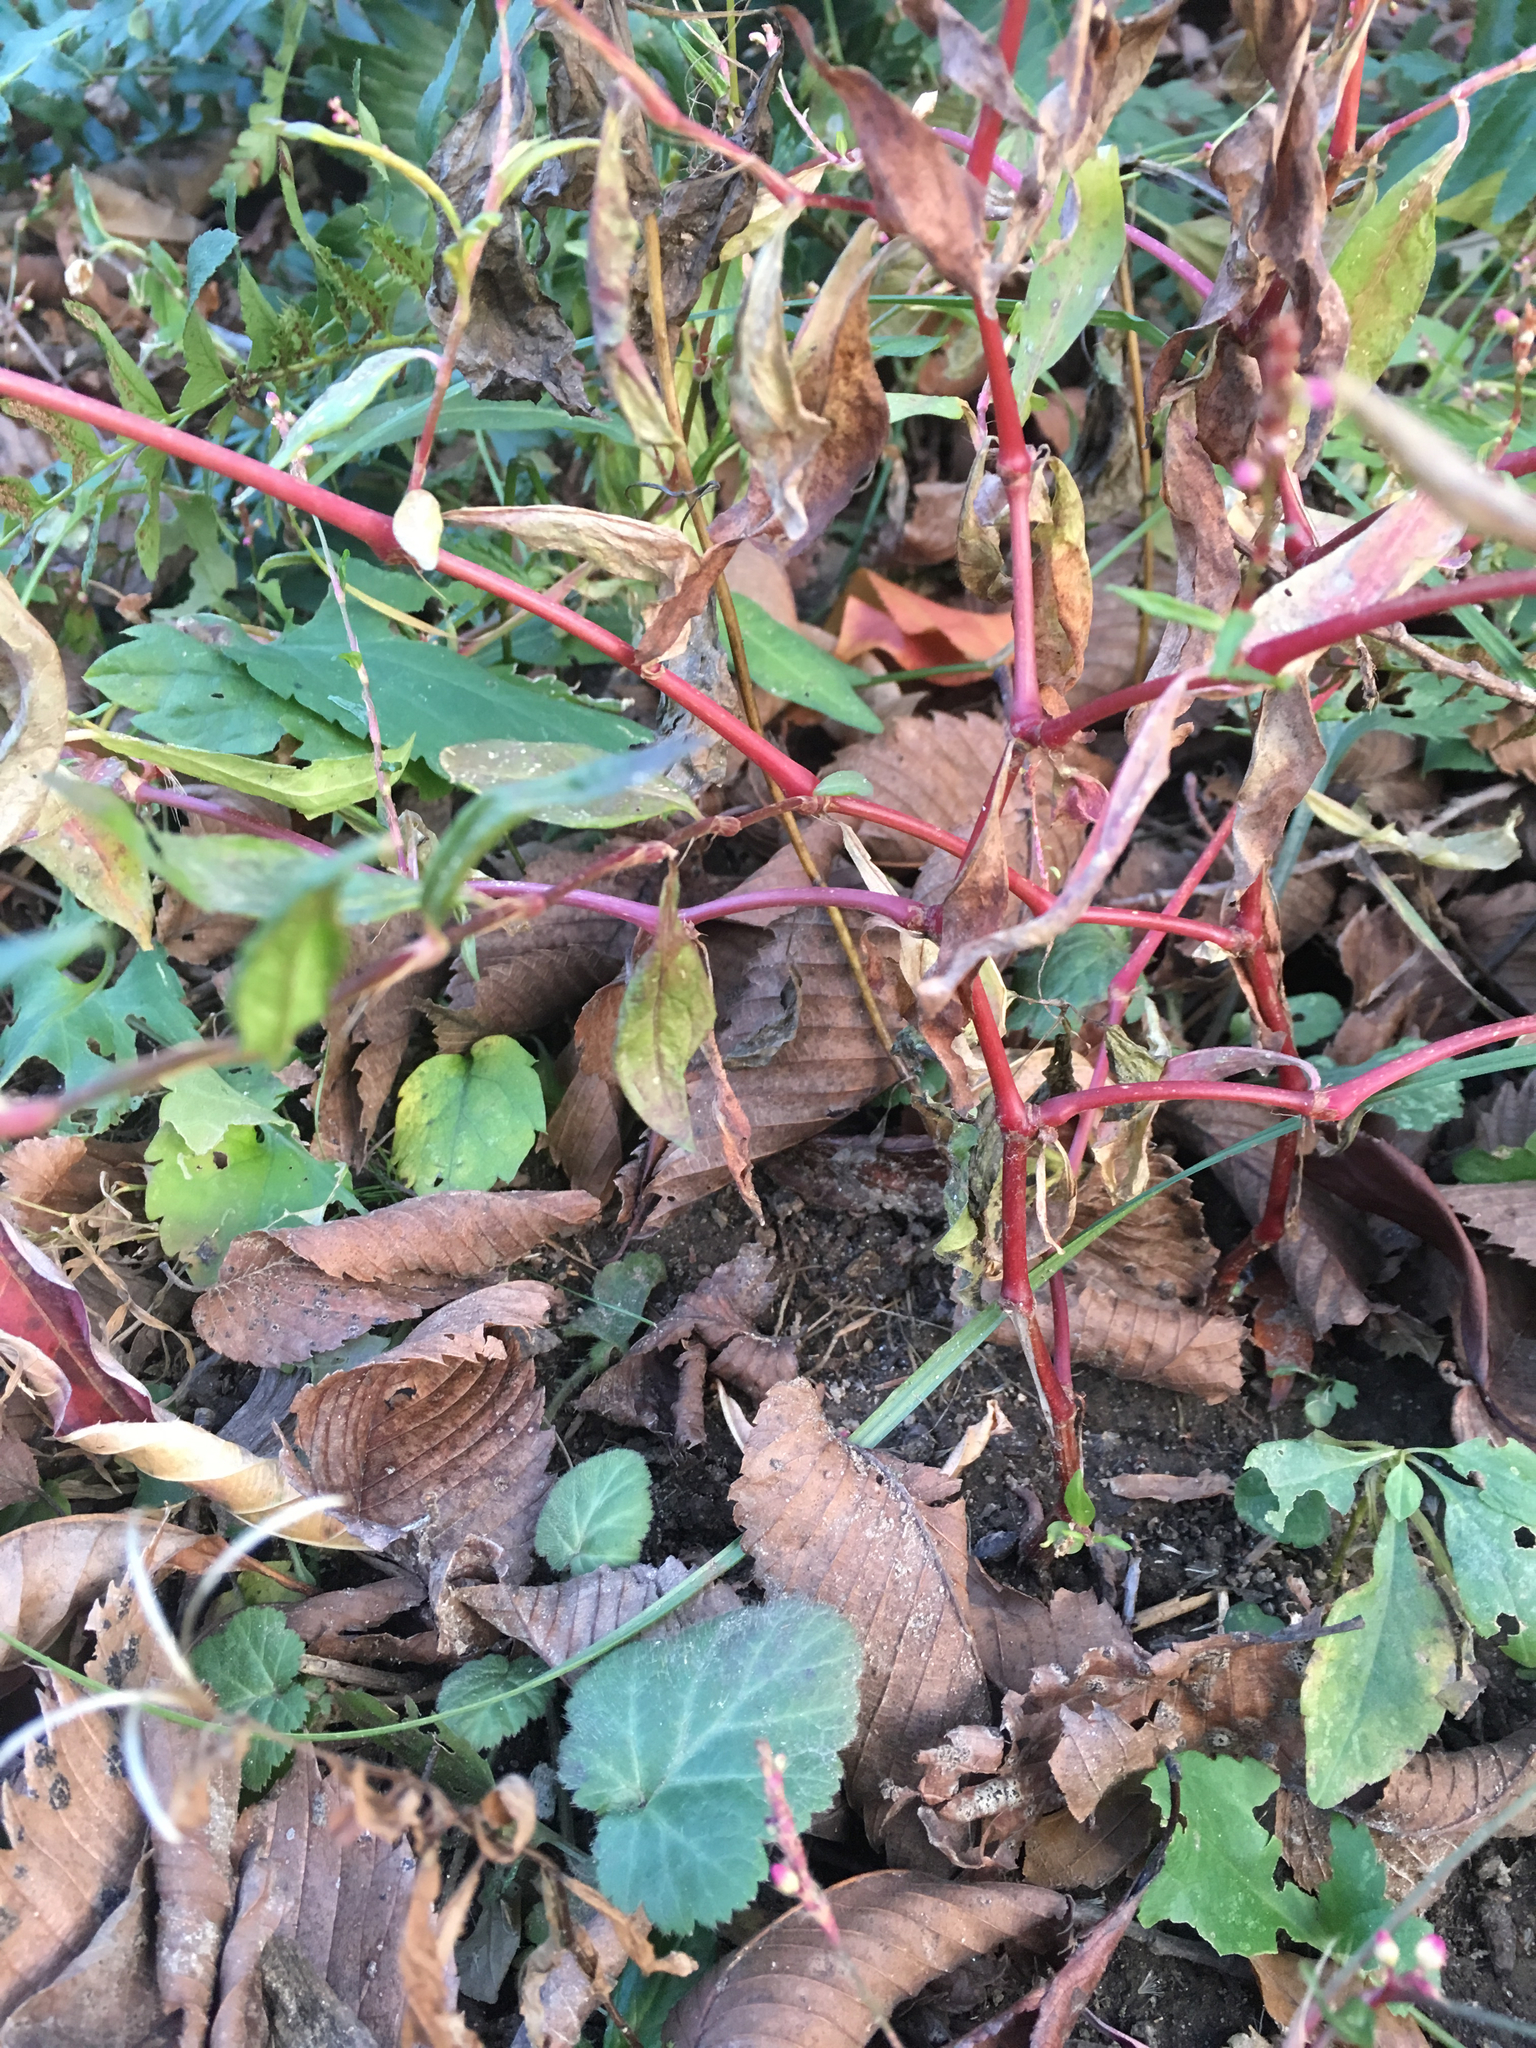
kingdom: Plantae
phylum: Tracheophyta
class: Magnoliopsida
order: Caryophyllales
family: Polygonaceae
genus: Persicaria
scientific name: Persicaria longiseta
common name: Bristly lady's-thumb
